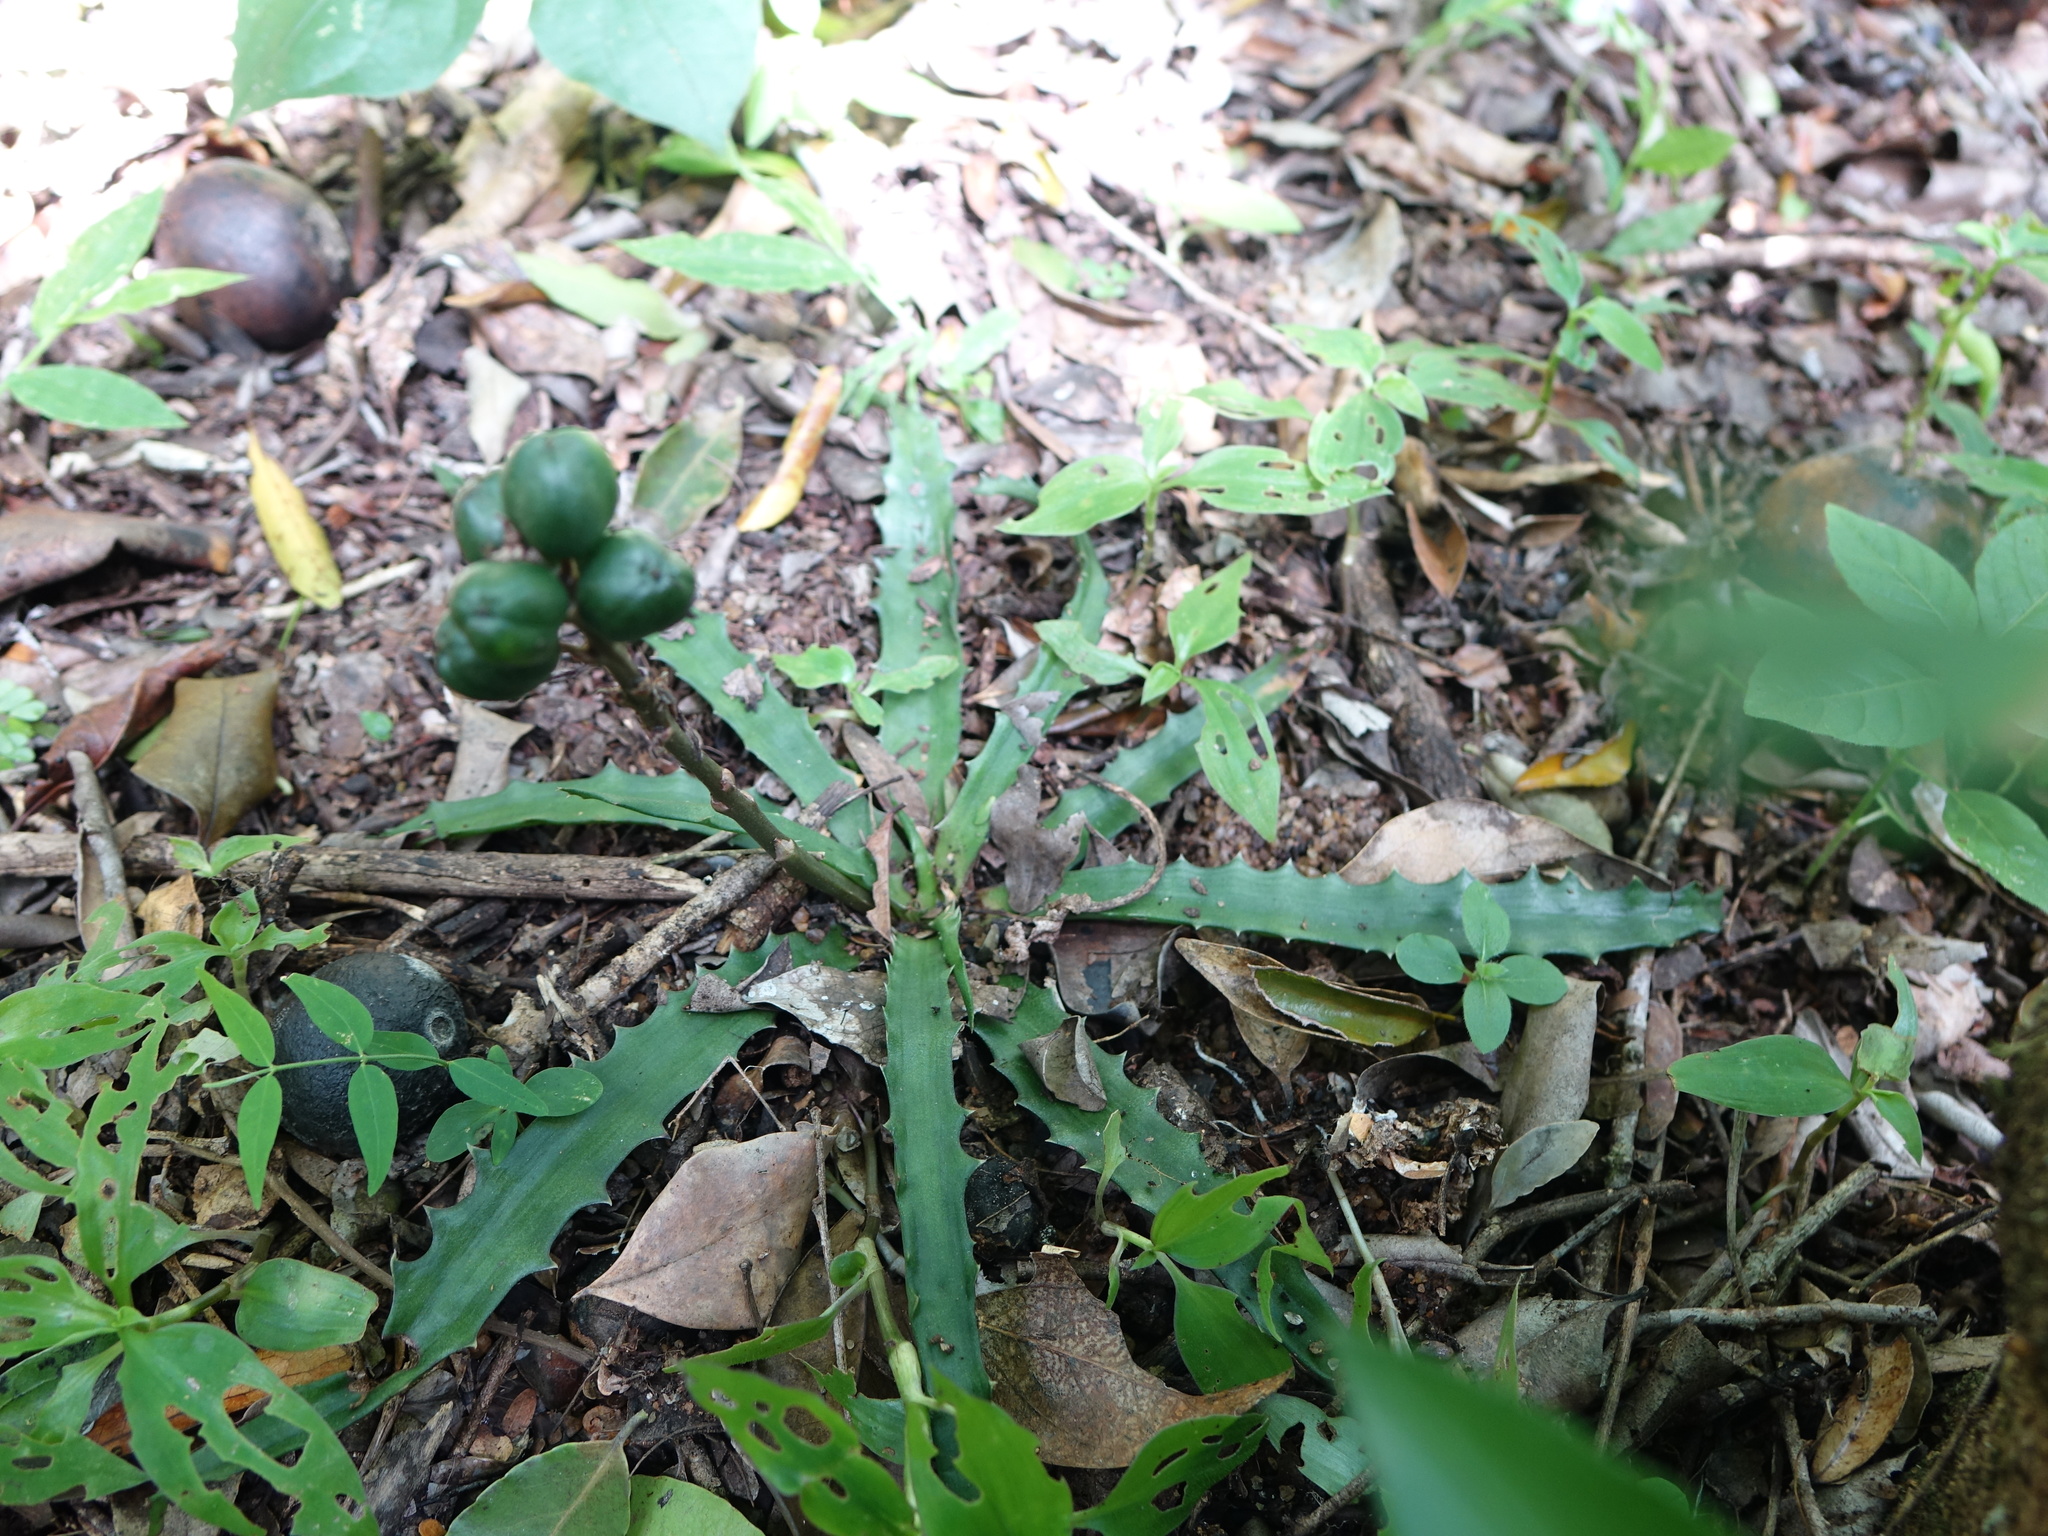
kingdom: Plantae
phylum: Tracheophyta
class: Liliopsida
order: Asparagales
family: Asphodelaceae
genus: Aloe
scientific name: Aloe zombitsiensis
